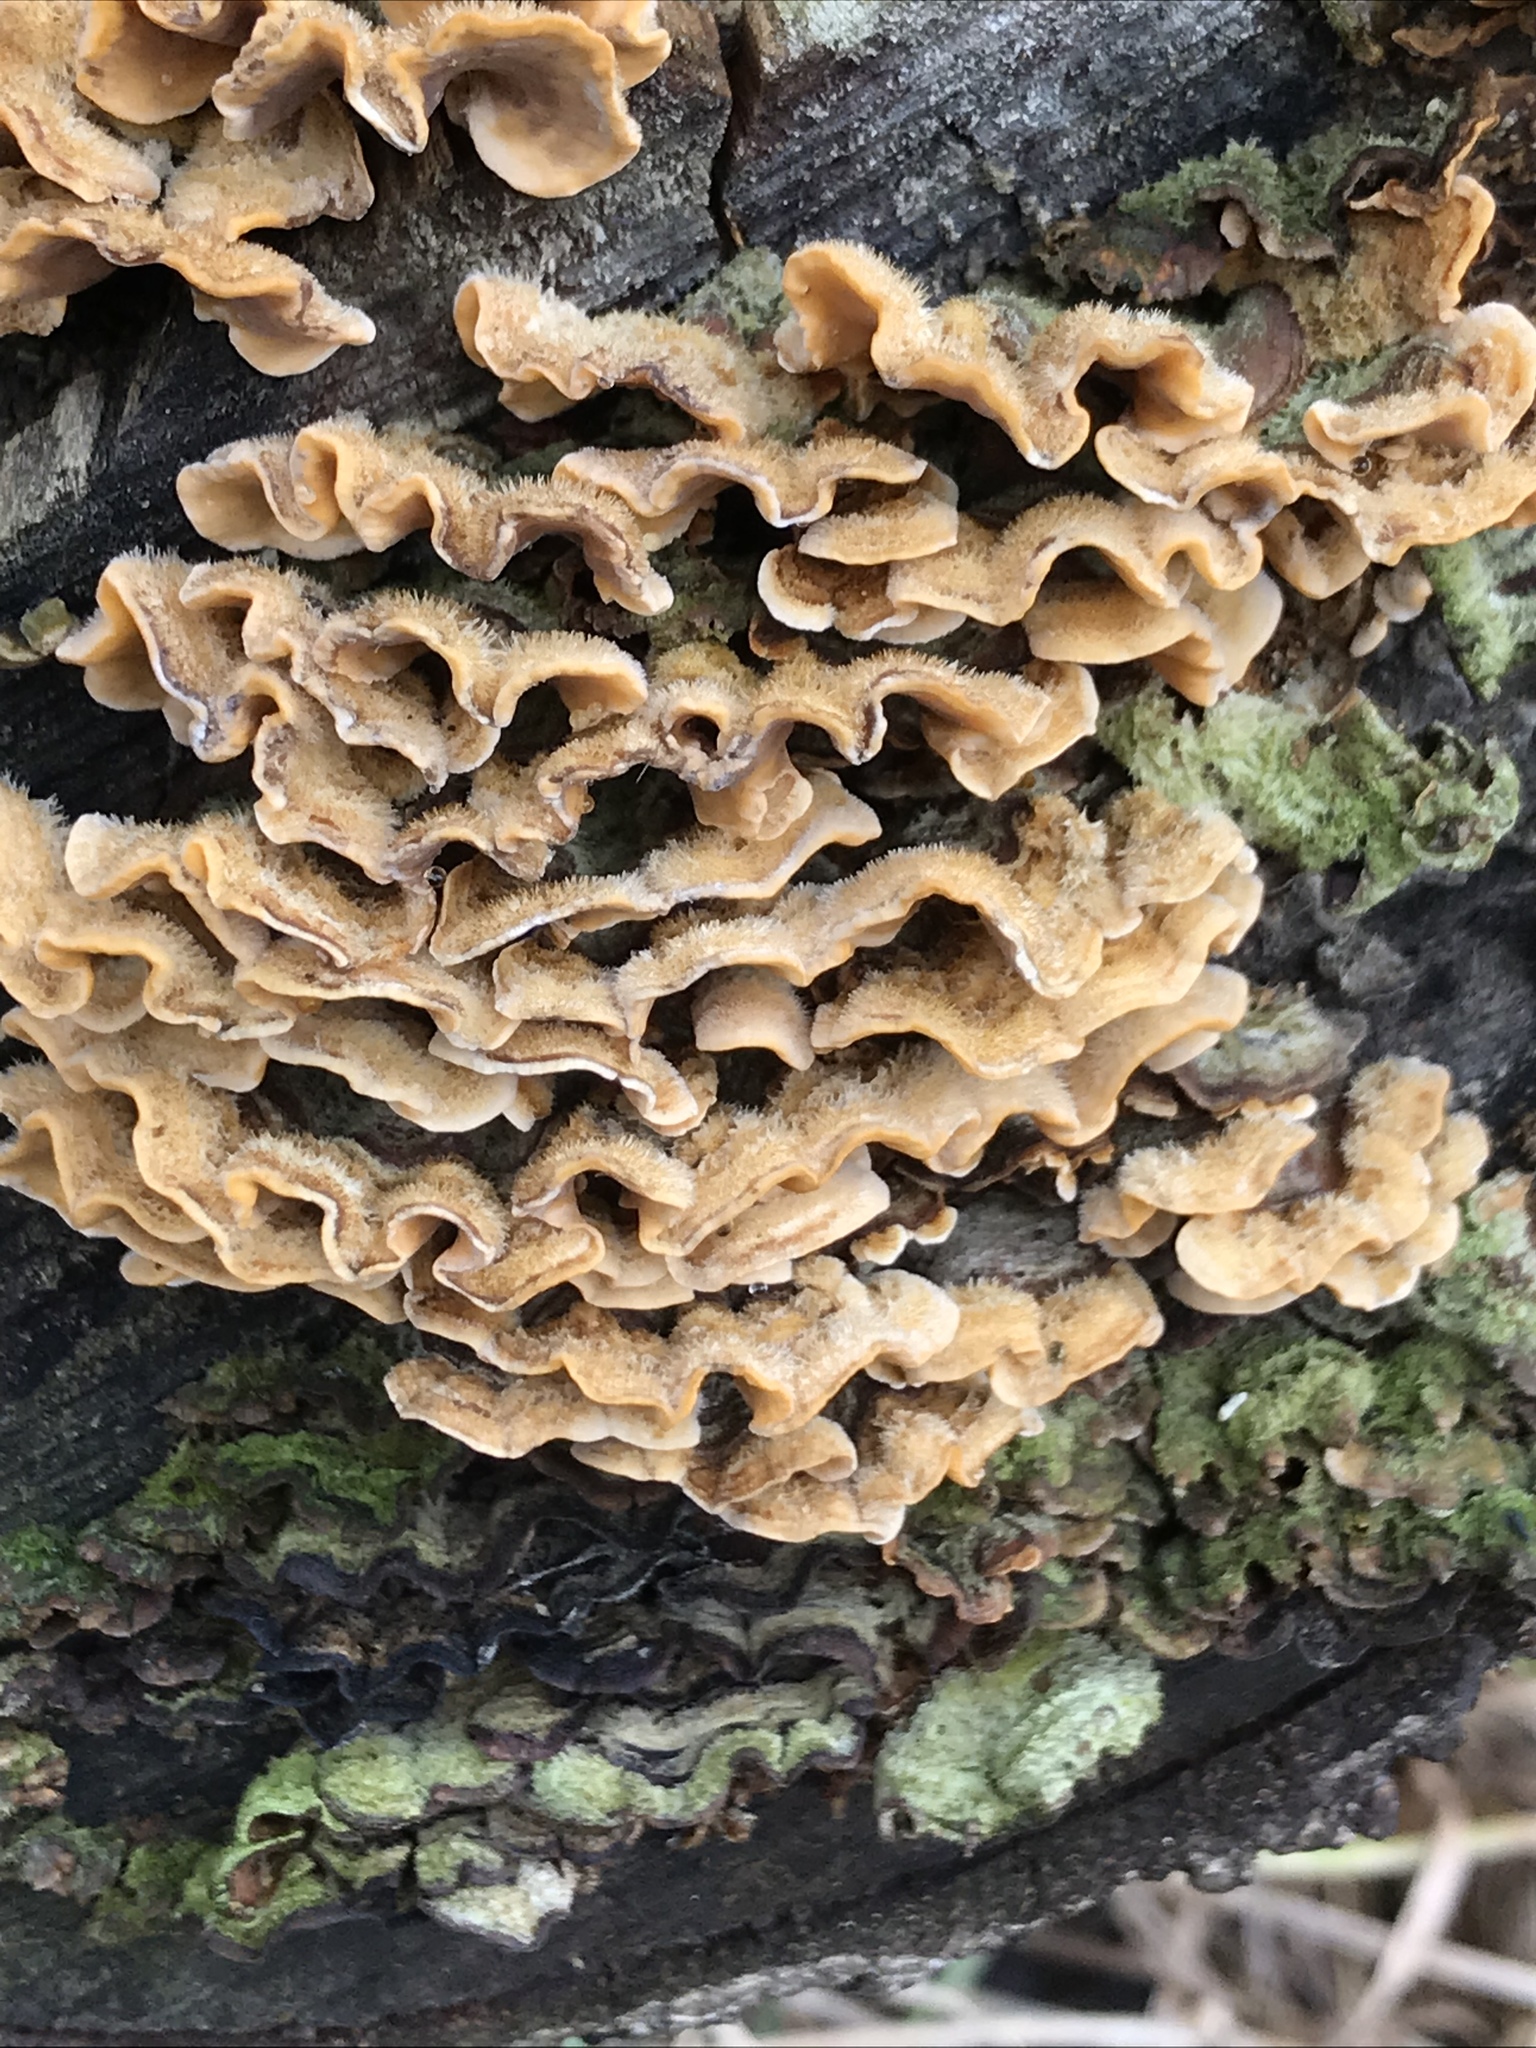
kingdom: Fungi
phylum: Basidiomycota
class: Agaricomycetes
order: Russulales
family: Stereaceae
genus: Stereum
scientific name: Stereum hirsutum
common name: Hairy curtain crust
